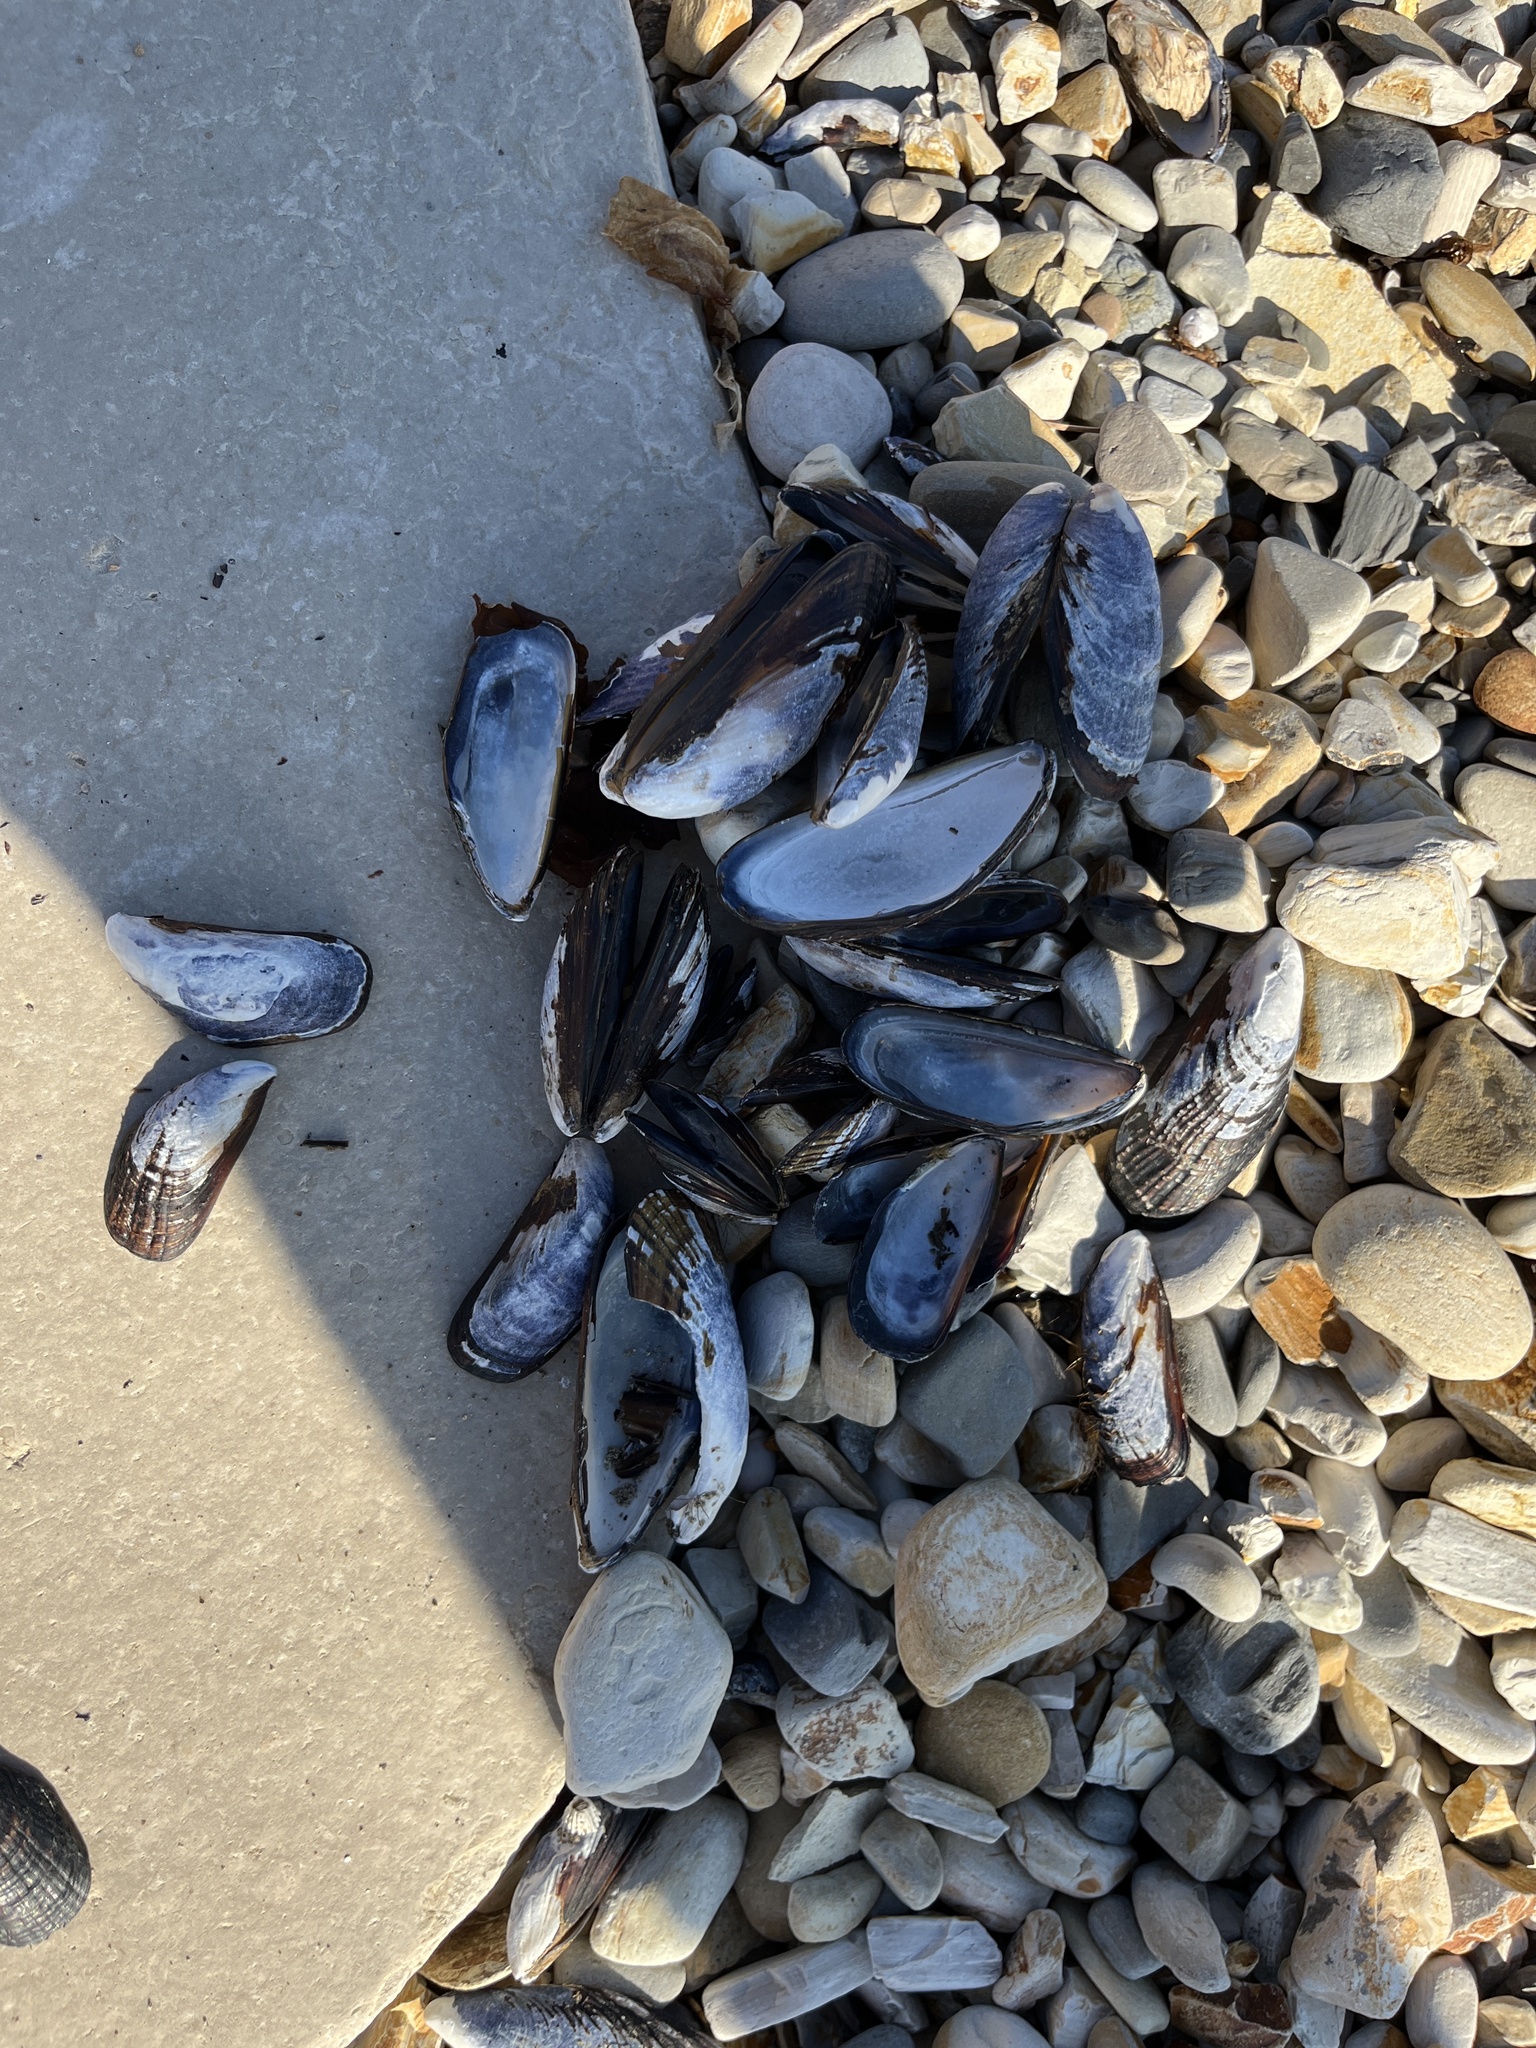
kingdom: Animalia
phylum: Mollusca
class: Bivalvia
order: Mytilida
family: Mytilidae
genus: Mytilus
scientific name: Mytilus californianus
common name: California mussel
